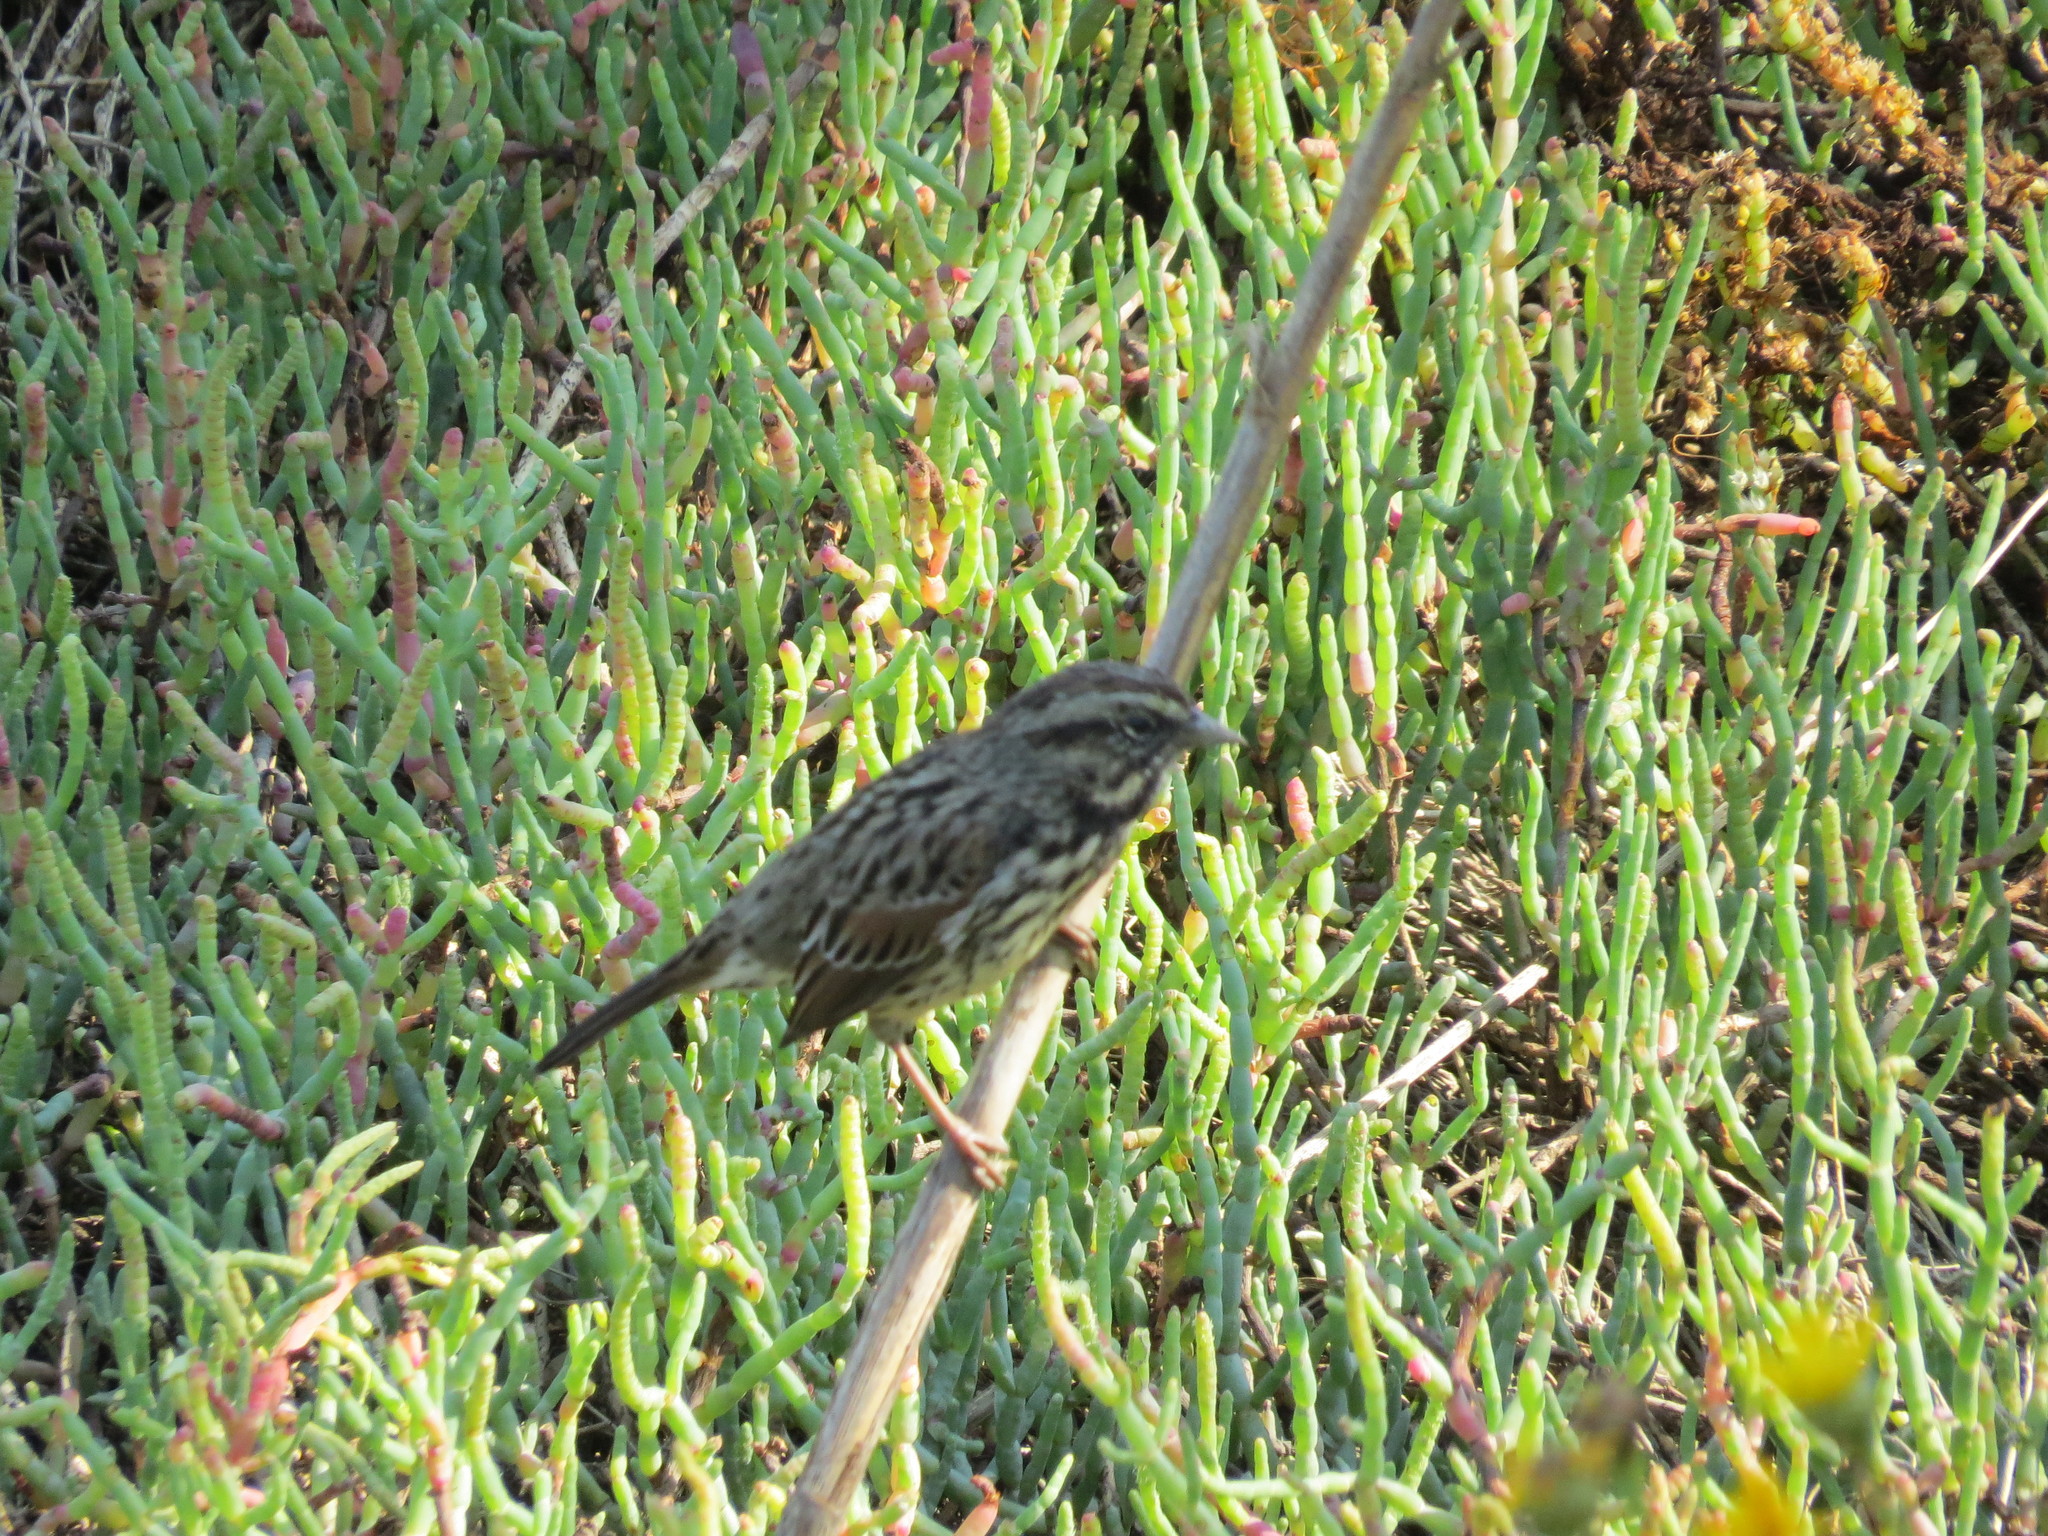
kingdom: Animalia
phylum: Chordata
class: Aves
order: Passeriformes
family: Passerellidae
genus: Melospiza
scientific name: Melospiza melodia
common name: Song sparrow
